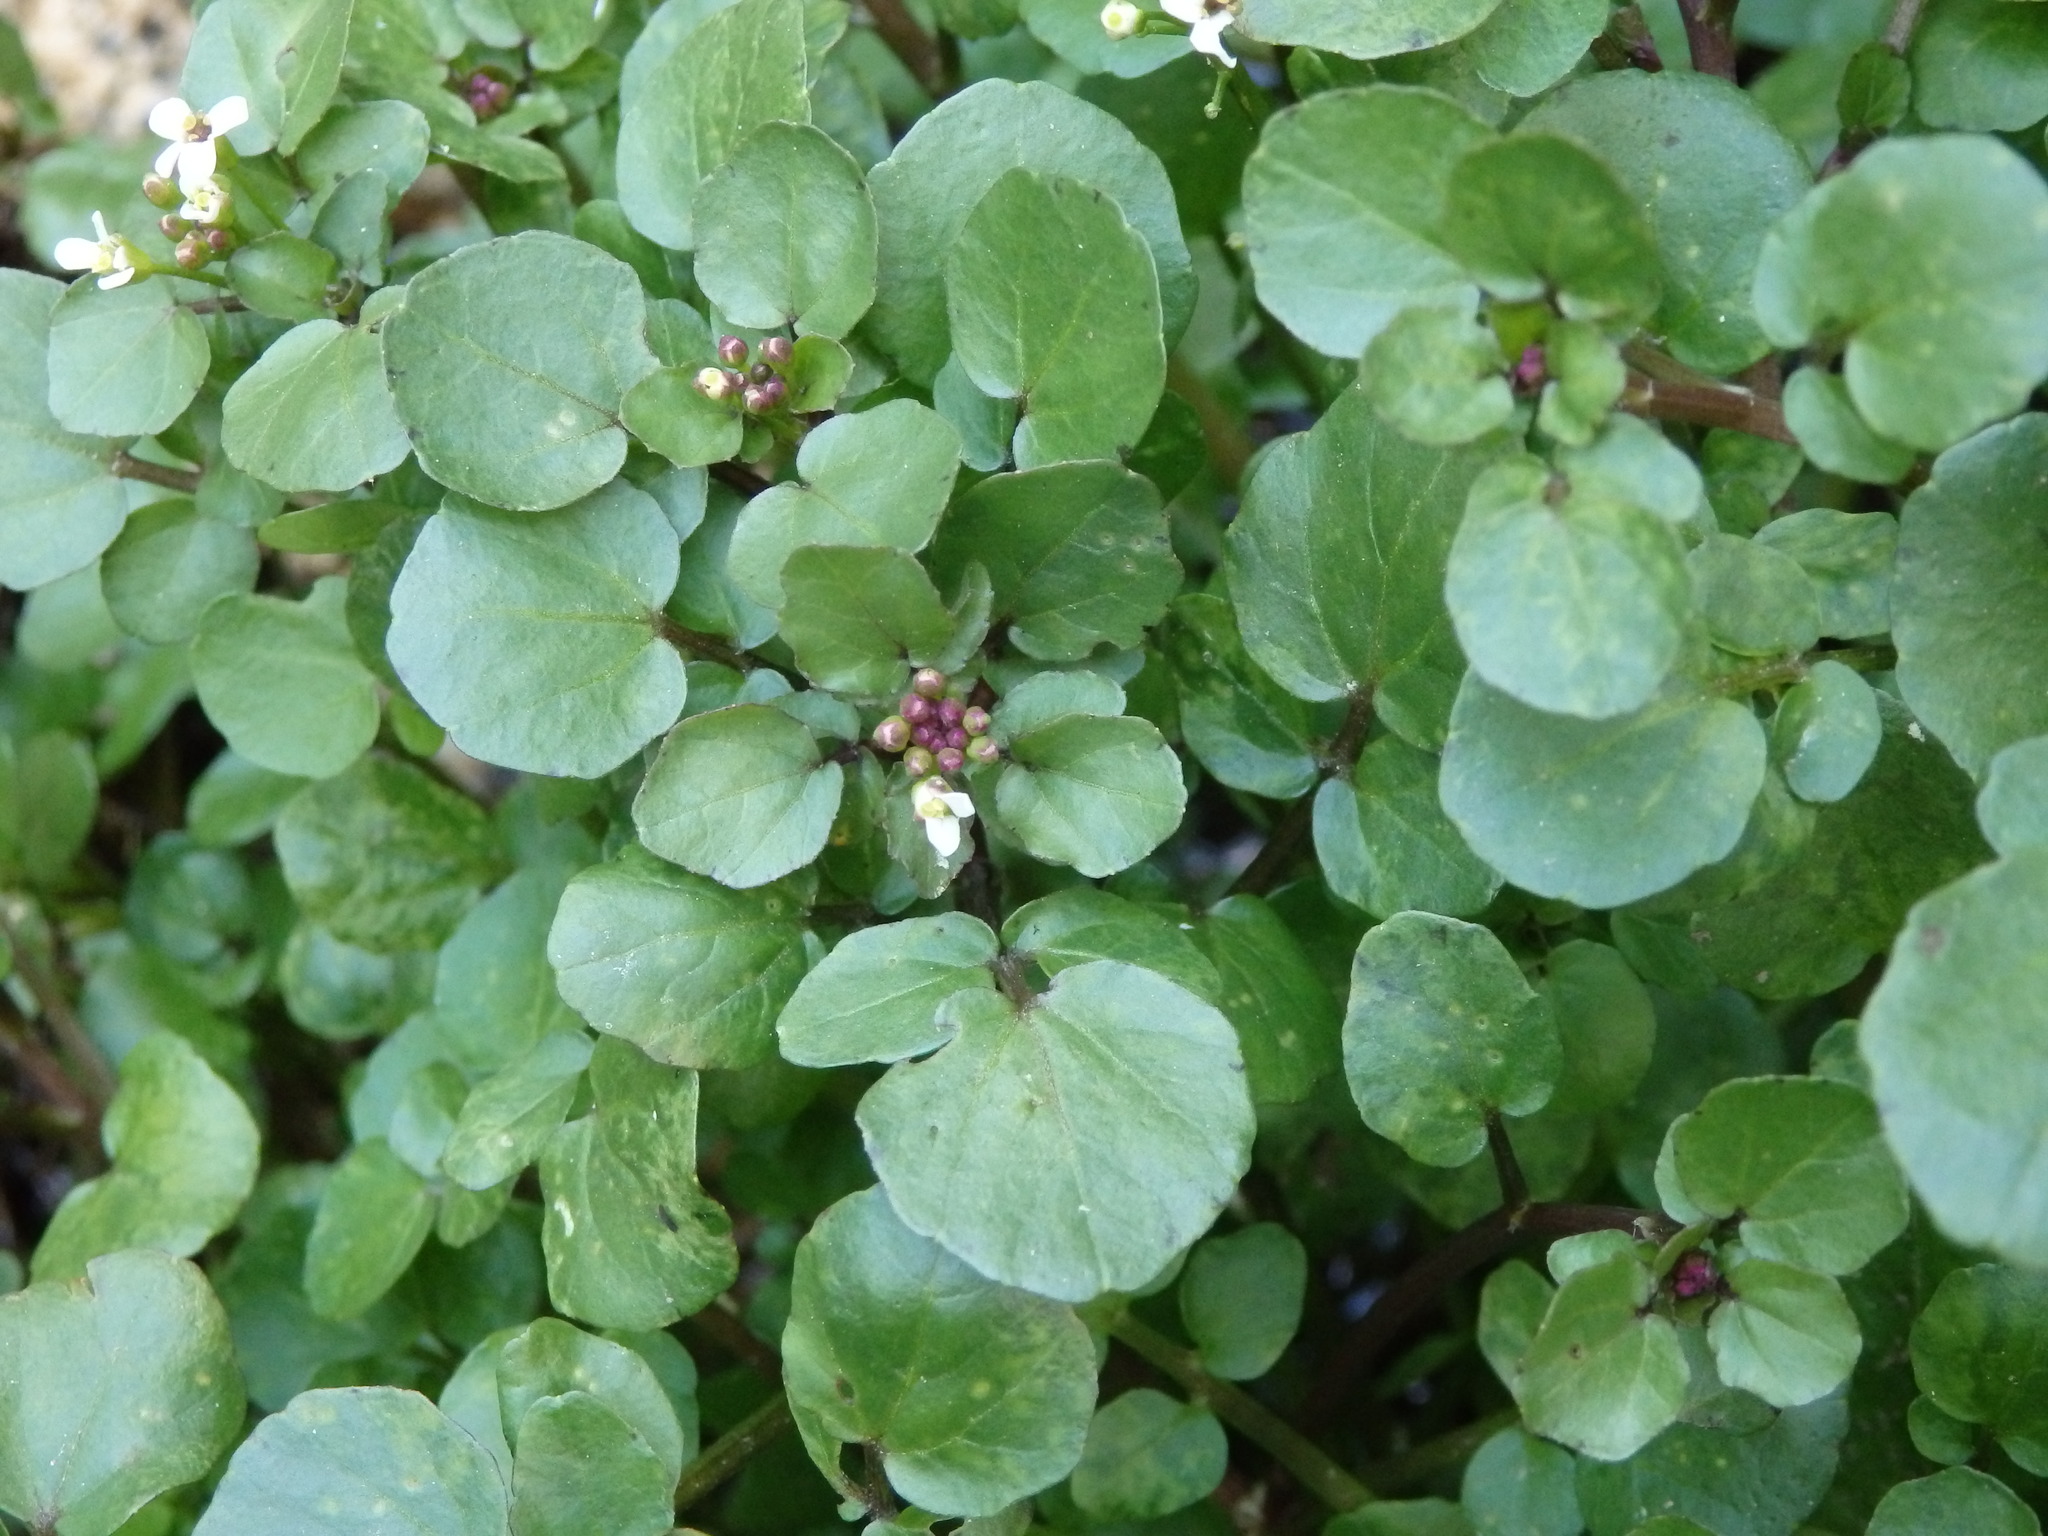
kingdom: Plantae
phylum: Tracheophyta
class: Magnoliopsida
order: Brassicales
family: Brassicaceae
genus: Nasturtium
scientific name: Nasturtium officinale
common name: Watercress
